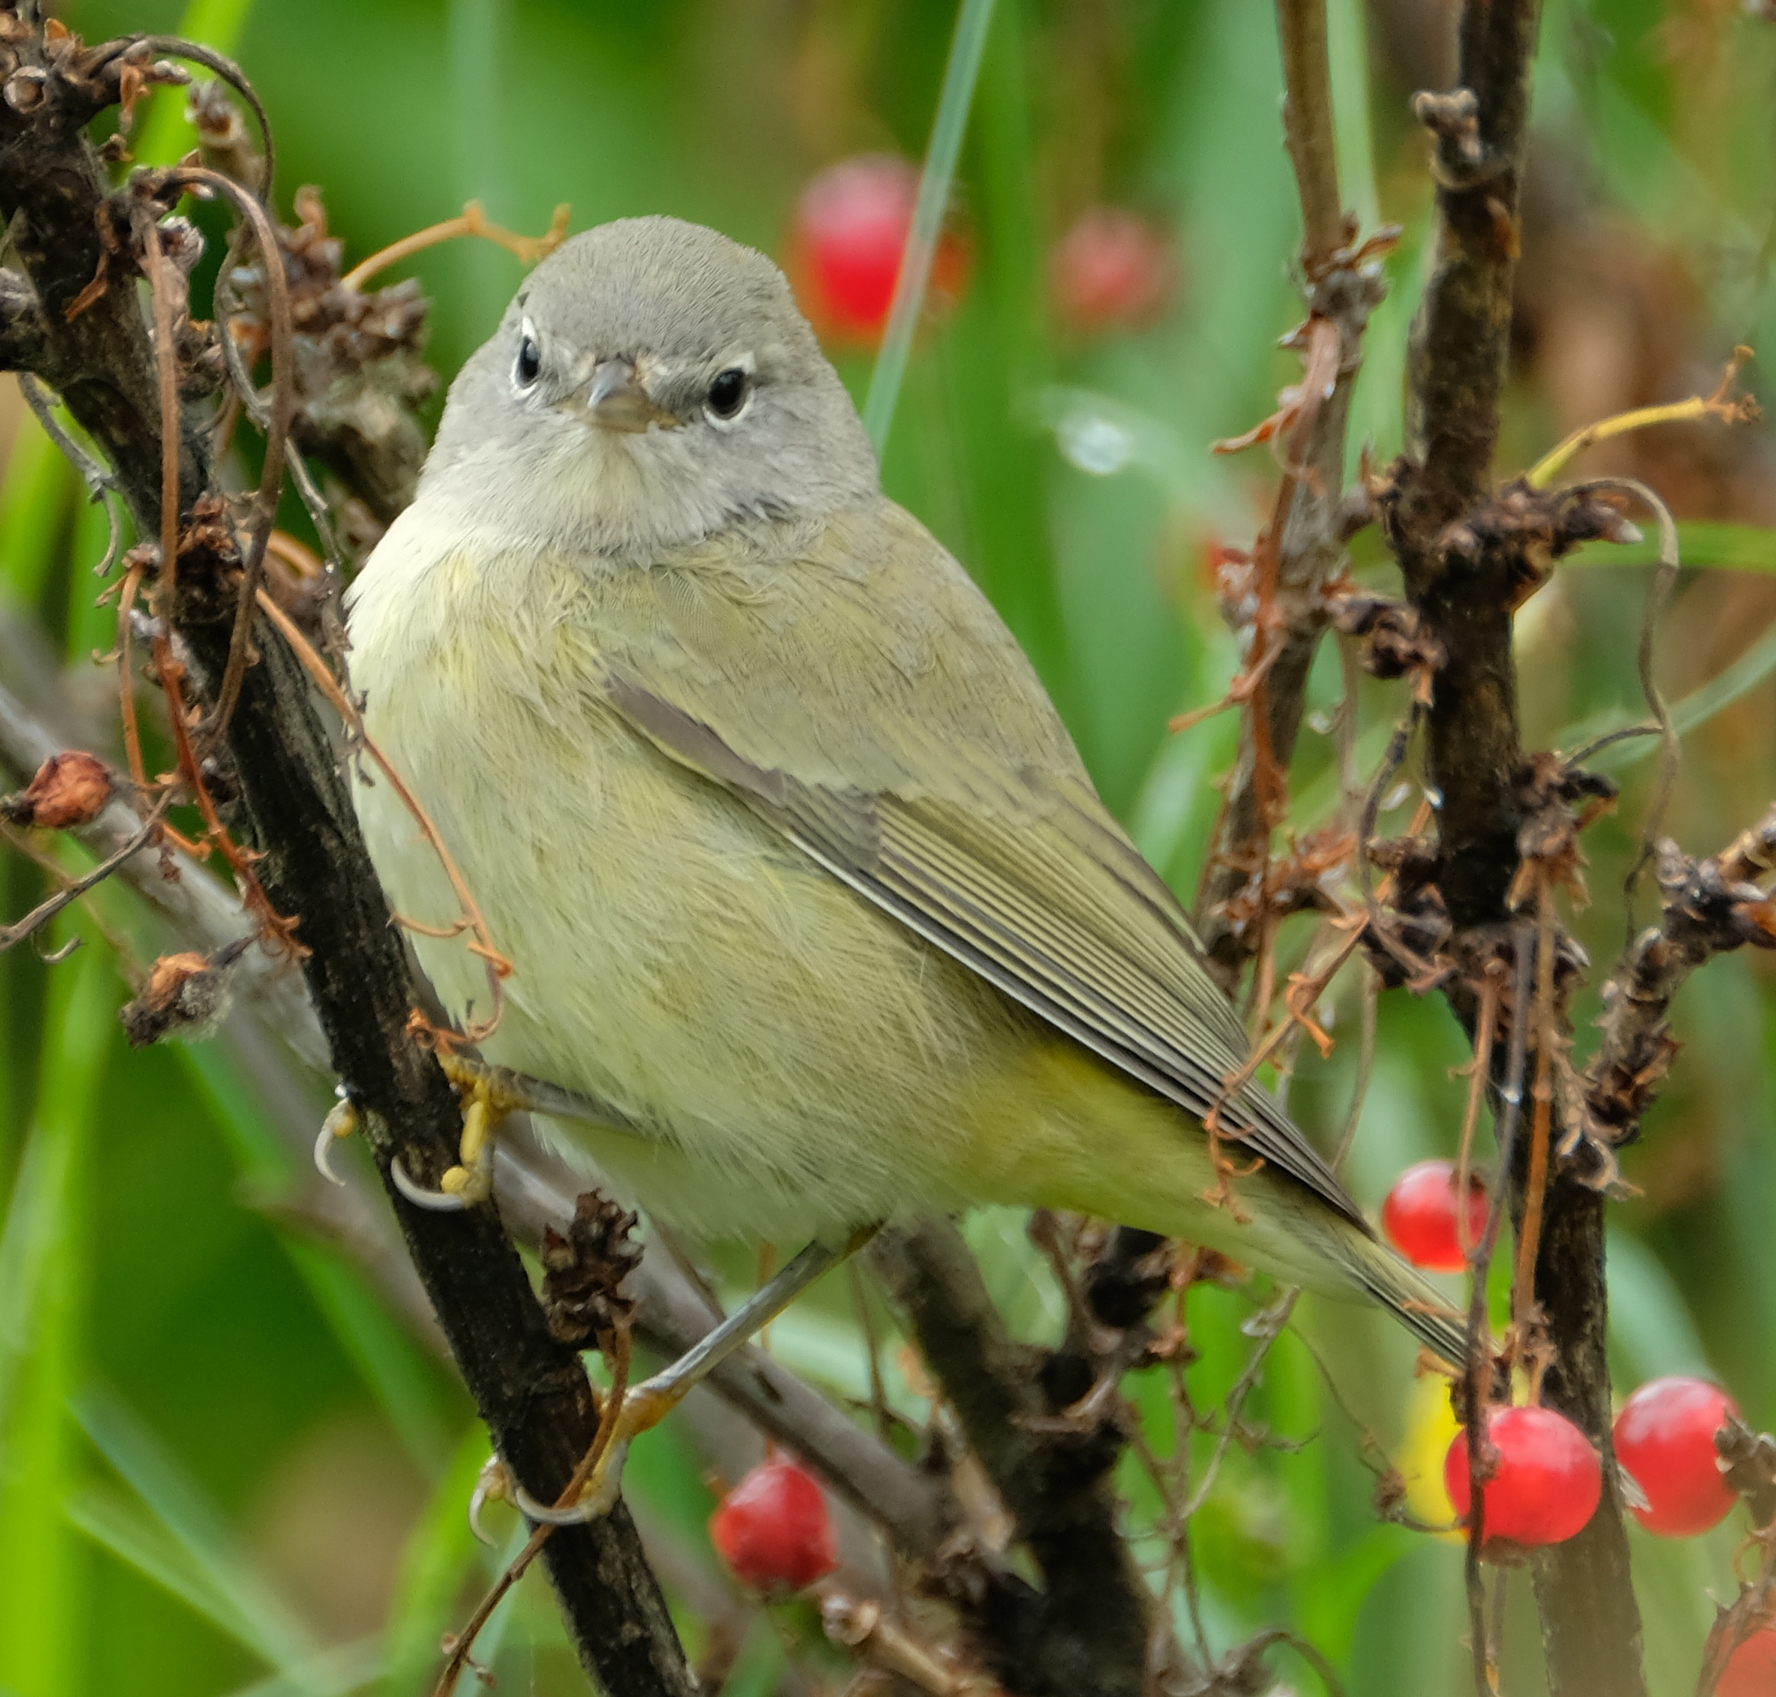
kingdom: Animalia
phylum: Chordata
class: Aves
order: Passeriformes
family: Parulidae
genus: Leiothlypis
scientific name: Leiothlypis celata
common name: Orange-crowned warbler
